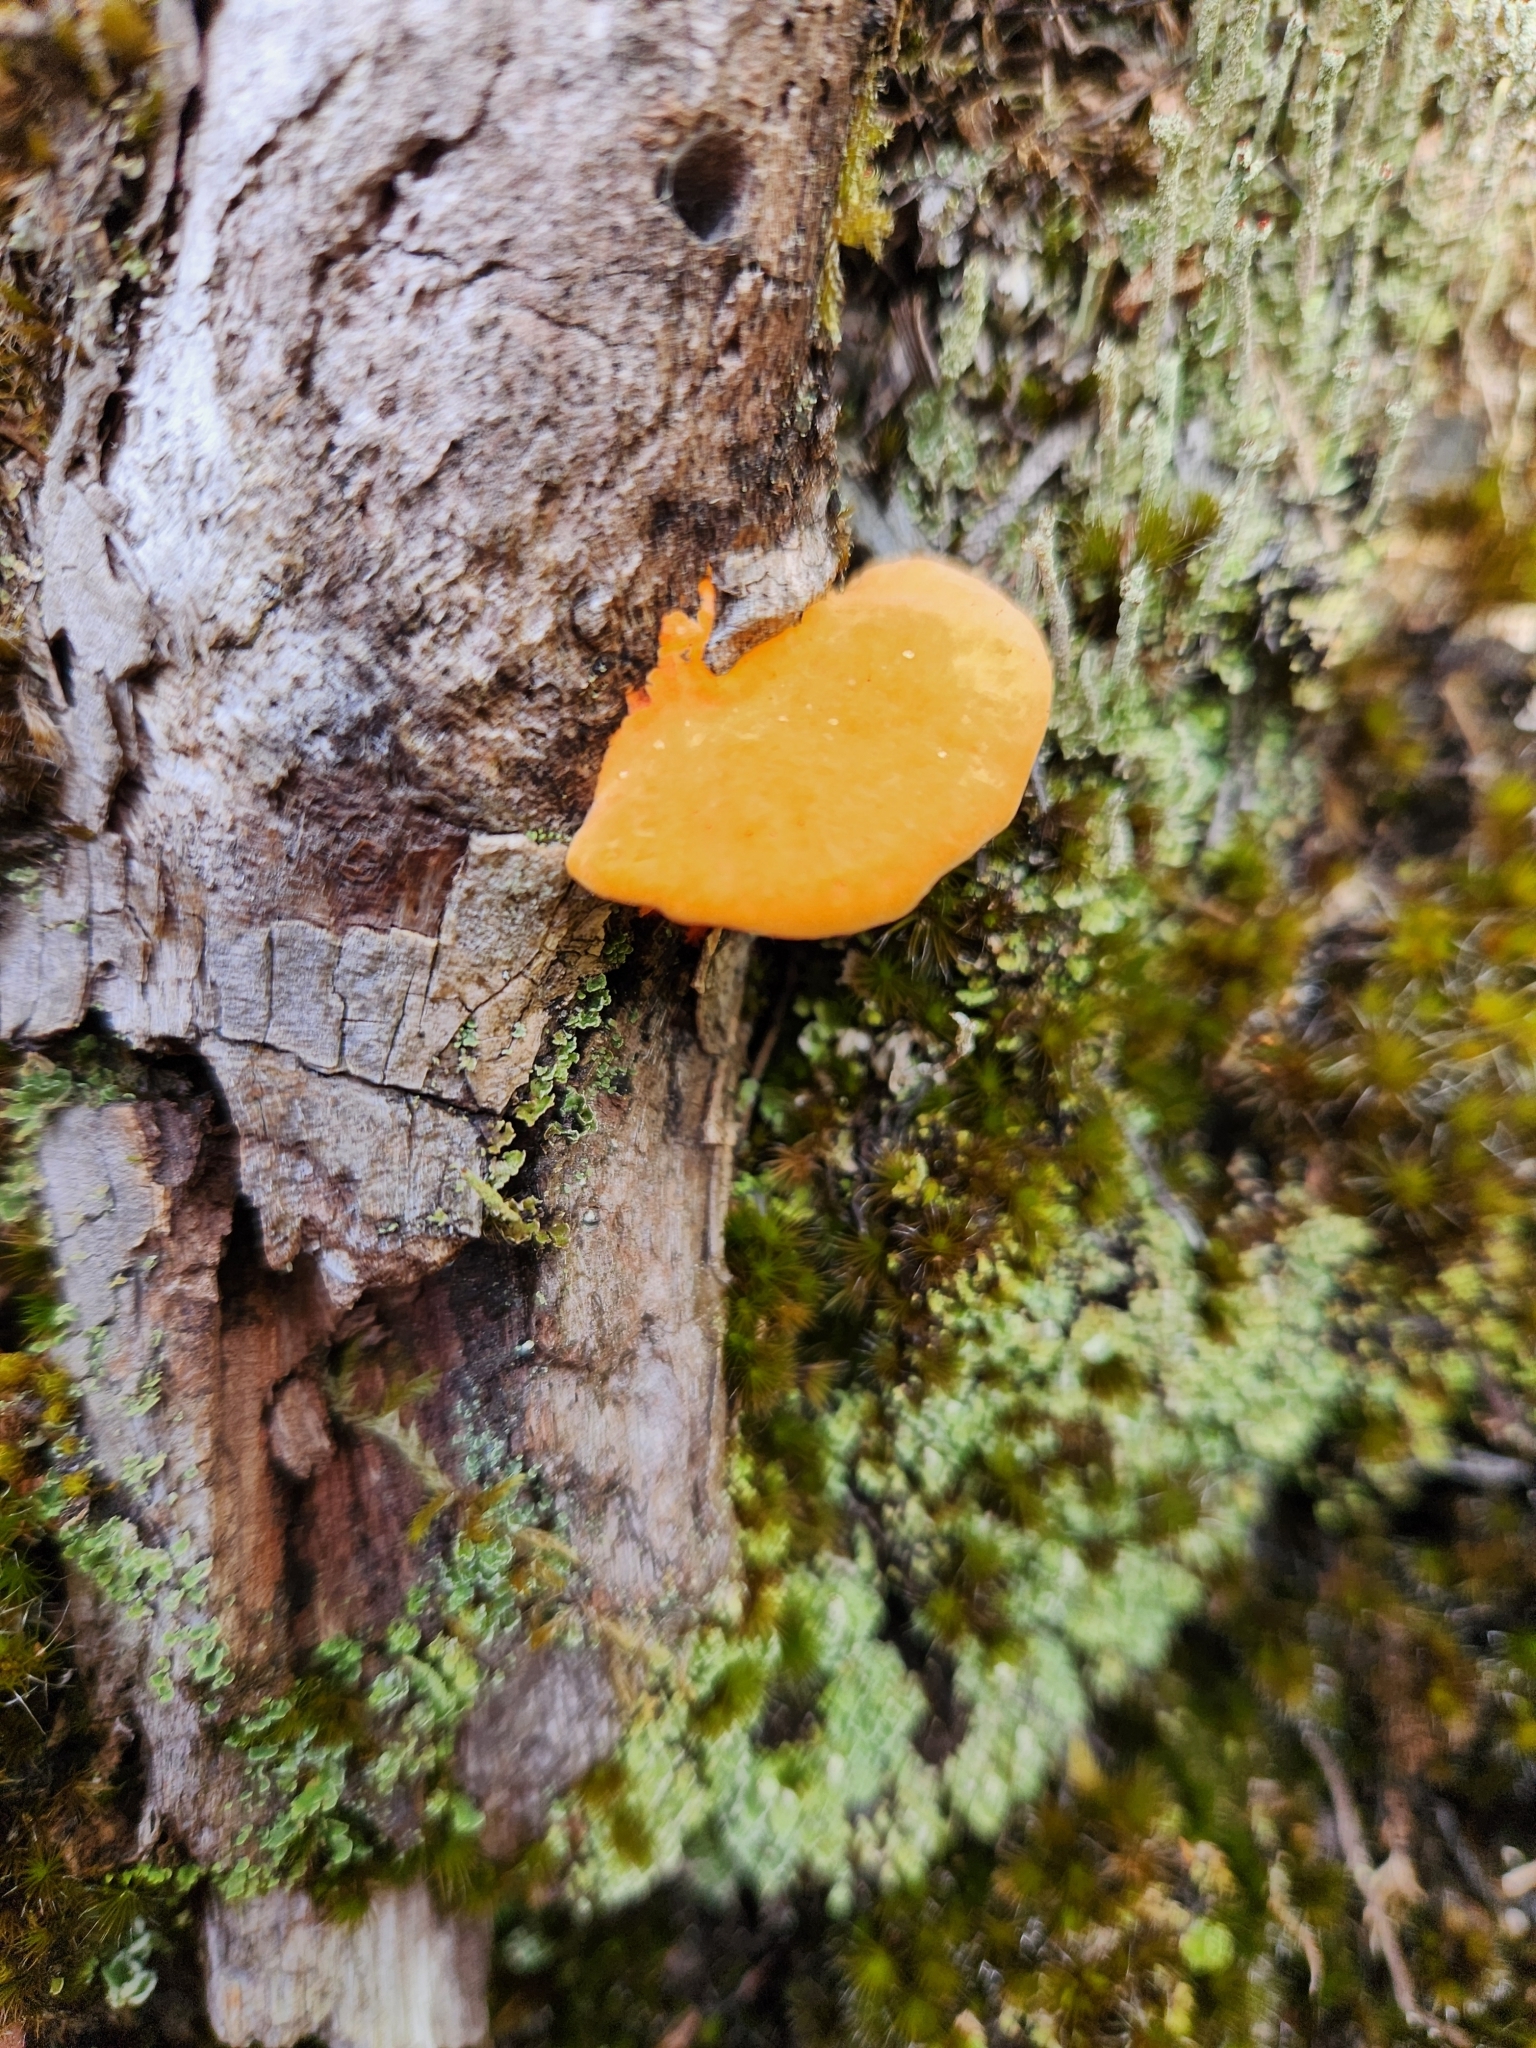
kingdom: Fungi
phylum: Basidiomycota
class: Agaricomycetes
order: Polyporales
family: Polyporaceae
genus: Trametes
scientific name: Trametes coccinea
